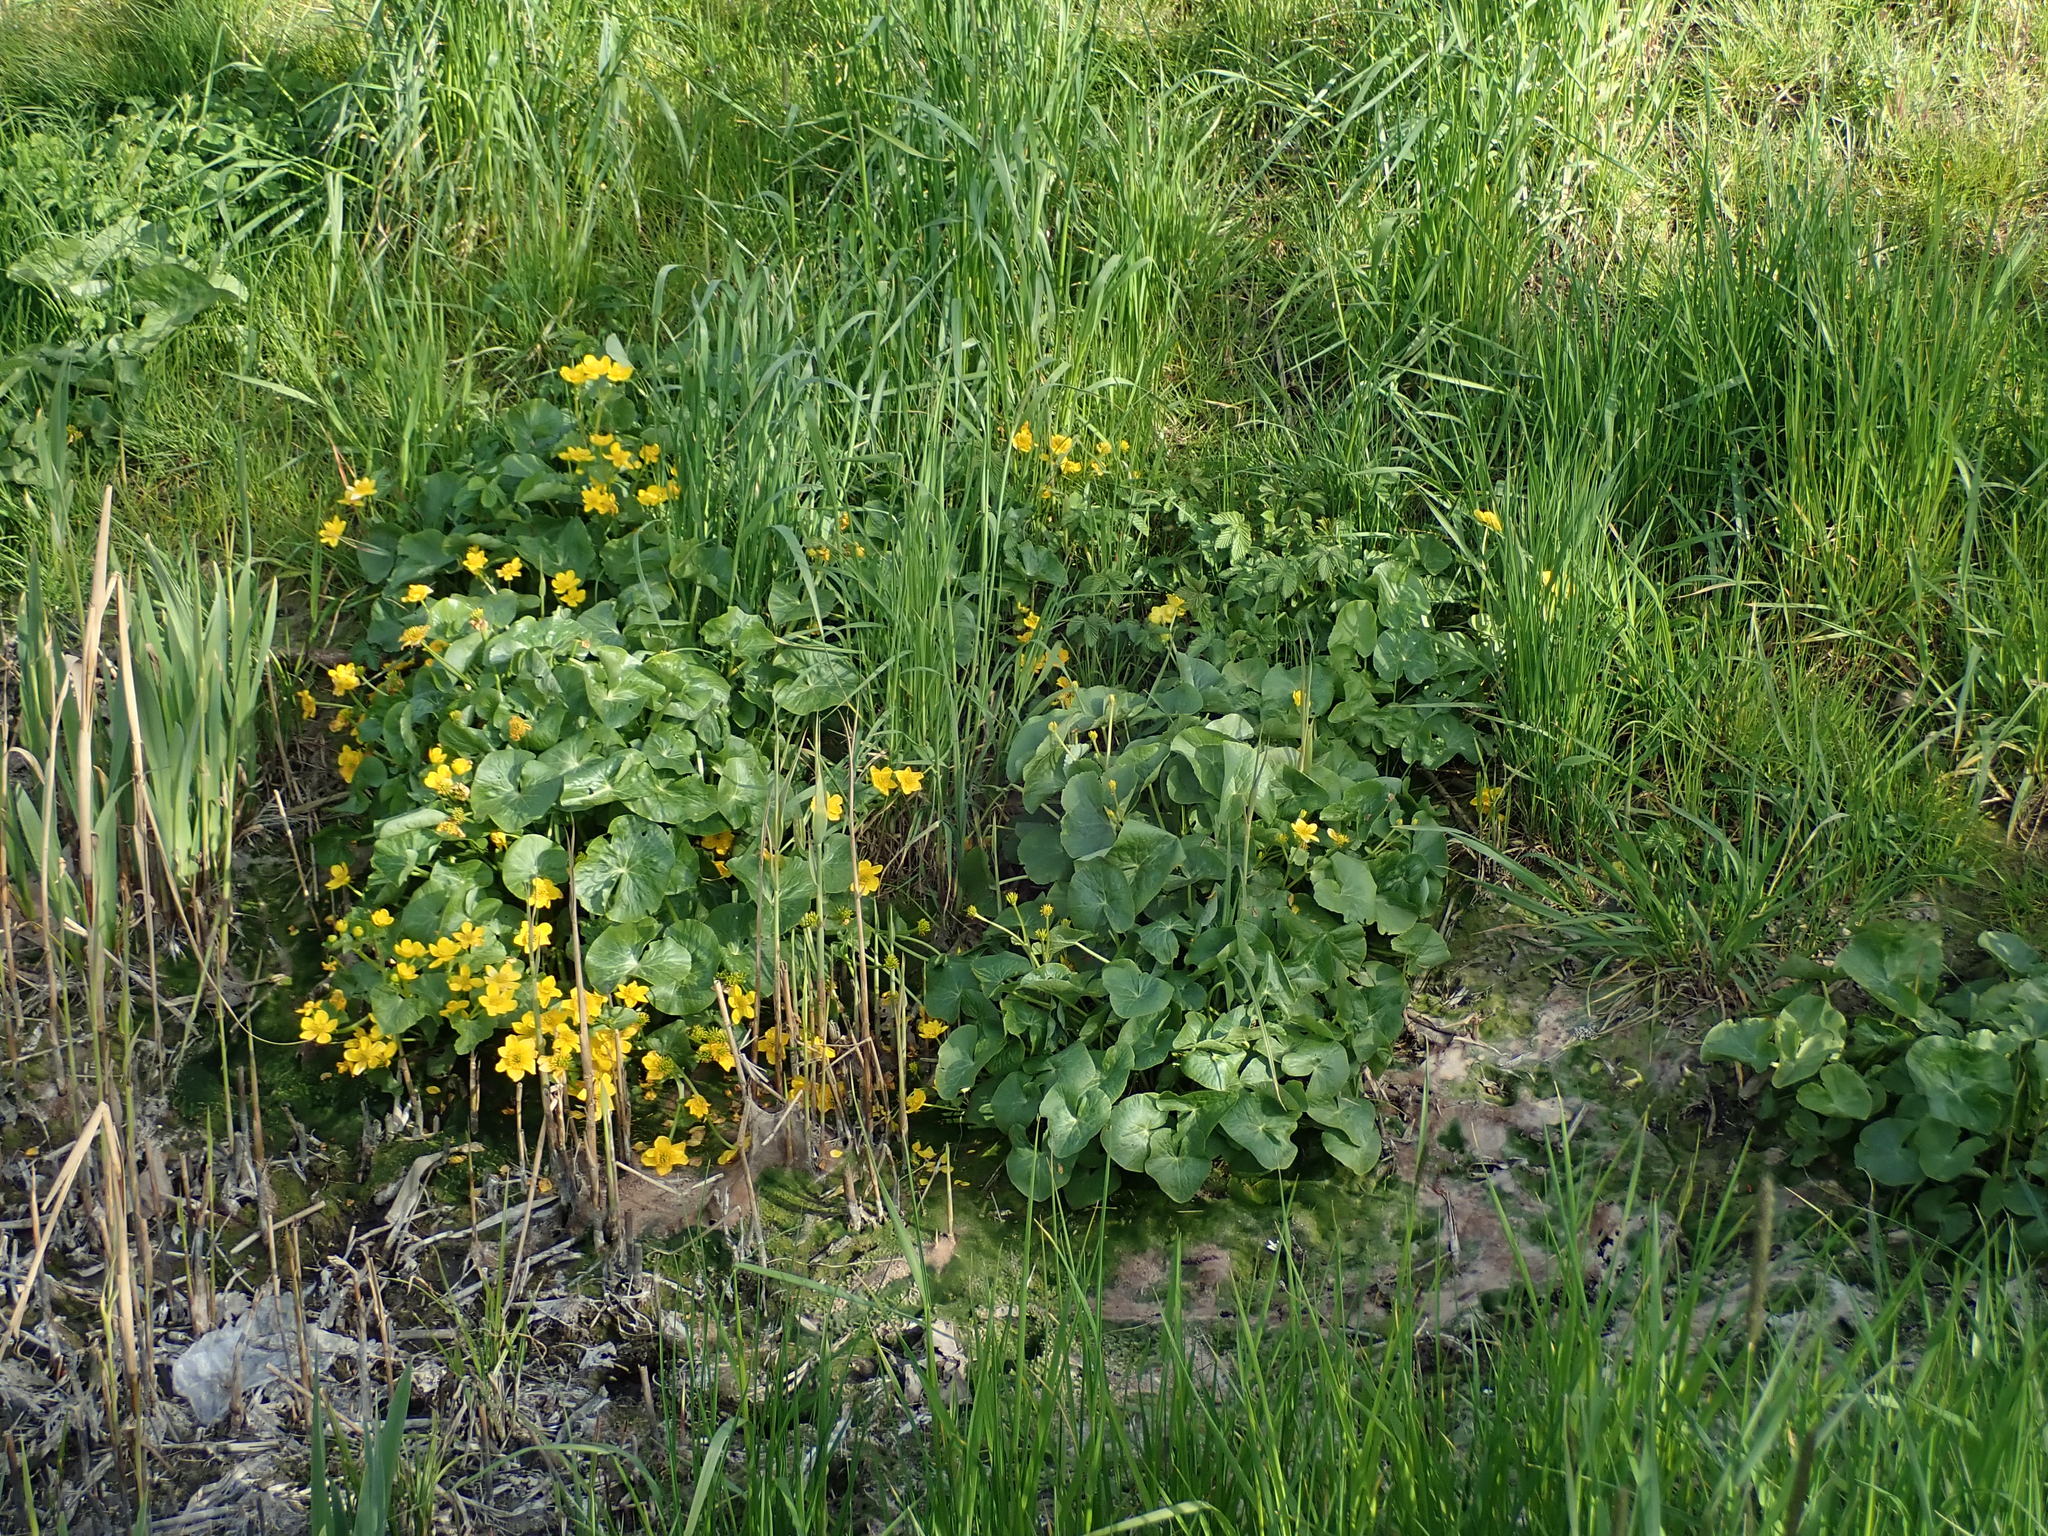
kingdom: Plantae
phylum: Tracheophyta
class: Magnoliopsida
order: Ranunculales
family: Ranunculaceae
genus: Caltha
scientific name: Caltha palustris
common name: Marsh marigold
